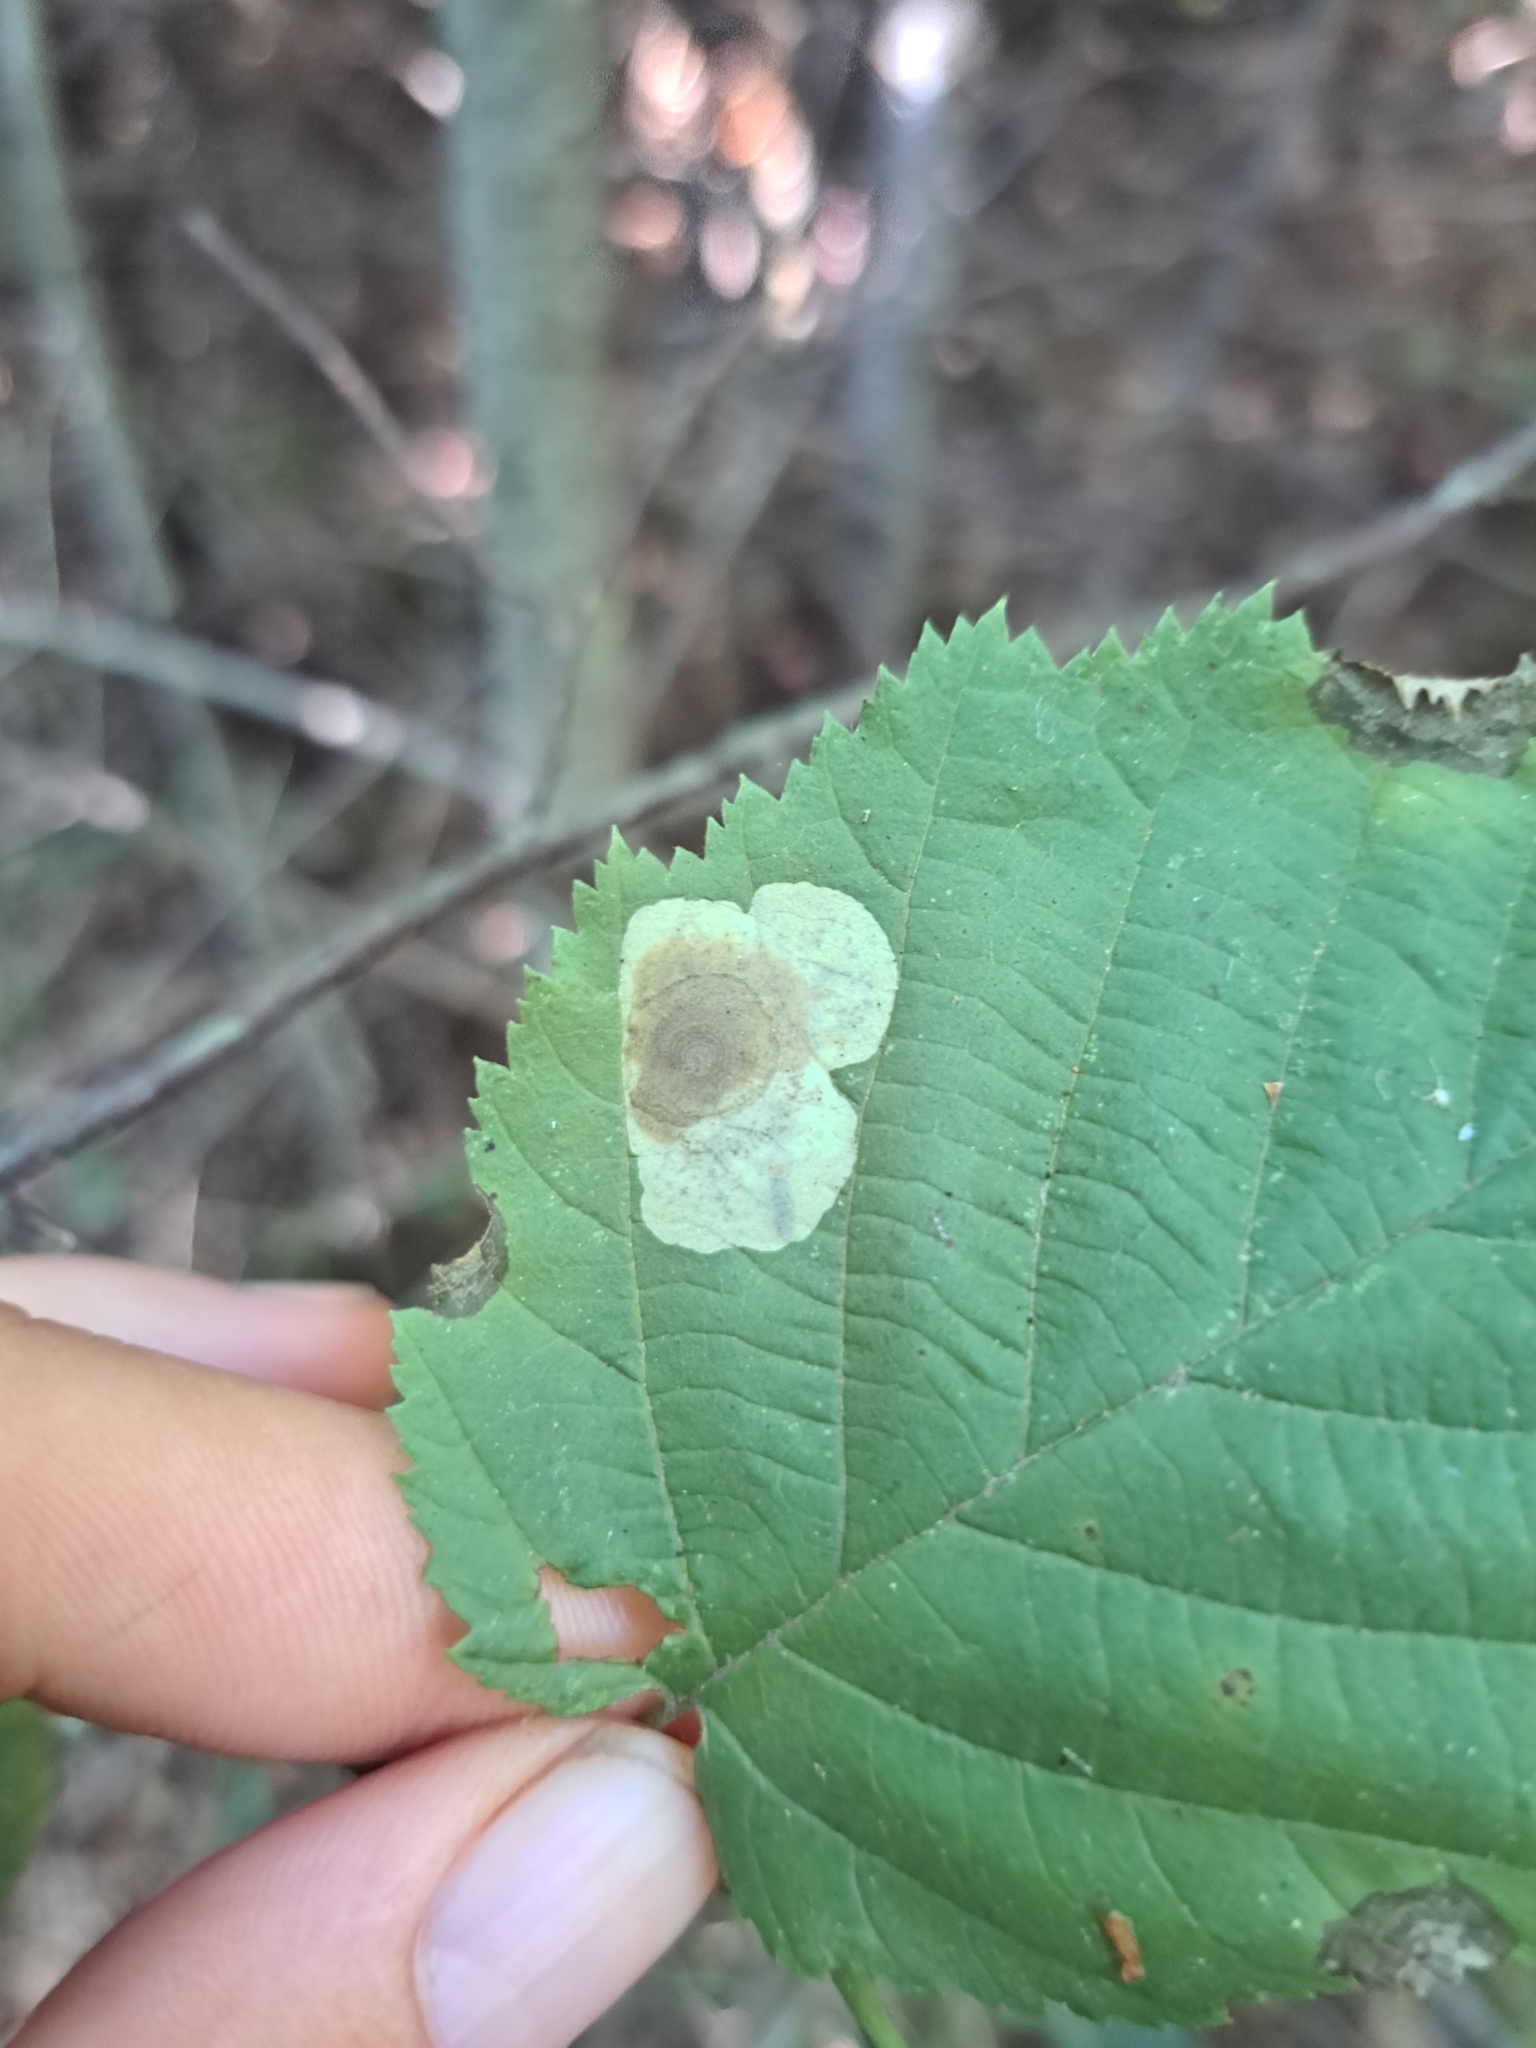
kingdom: Animalia
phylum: Arthropoda
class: Insecta
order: Lepidoptera
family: Gracillariidae
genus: Cameraria
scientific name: Cameraria corylisella
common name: Hazel blotchminer
